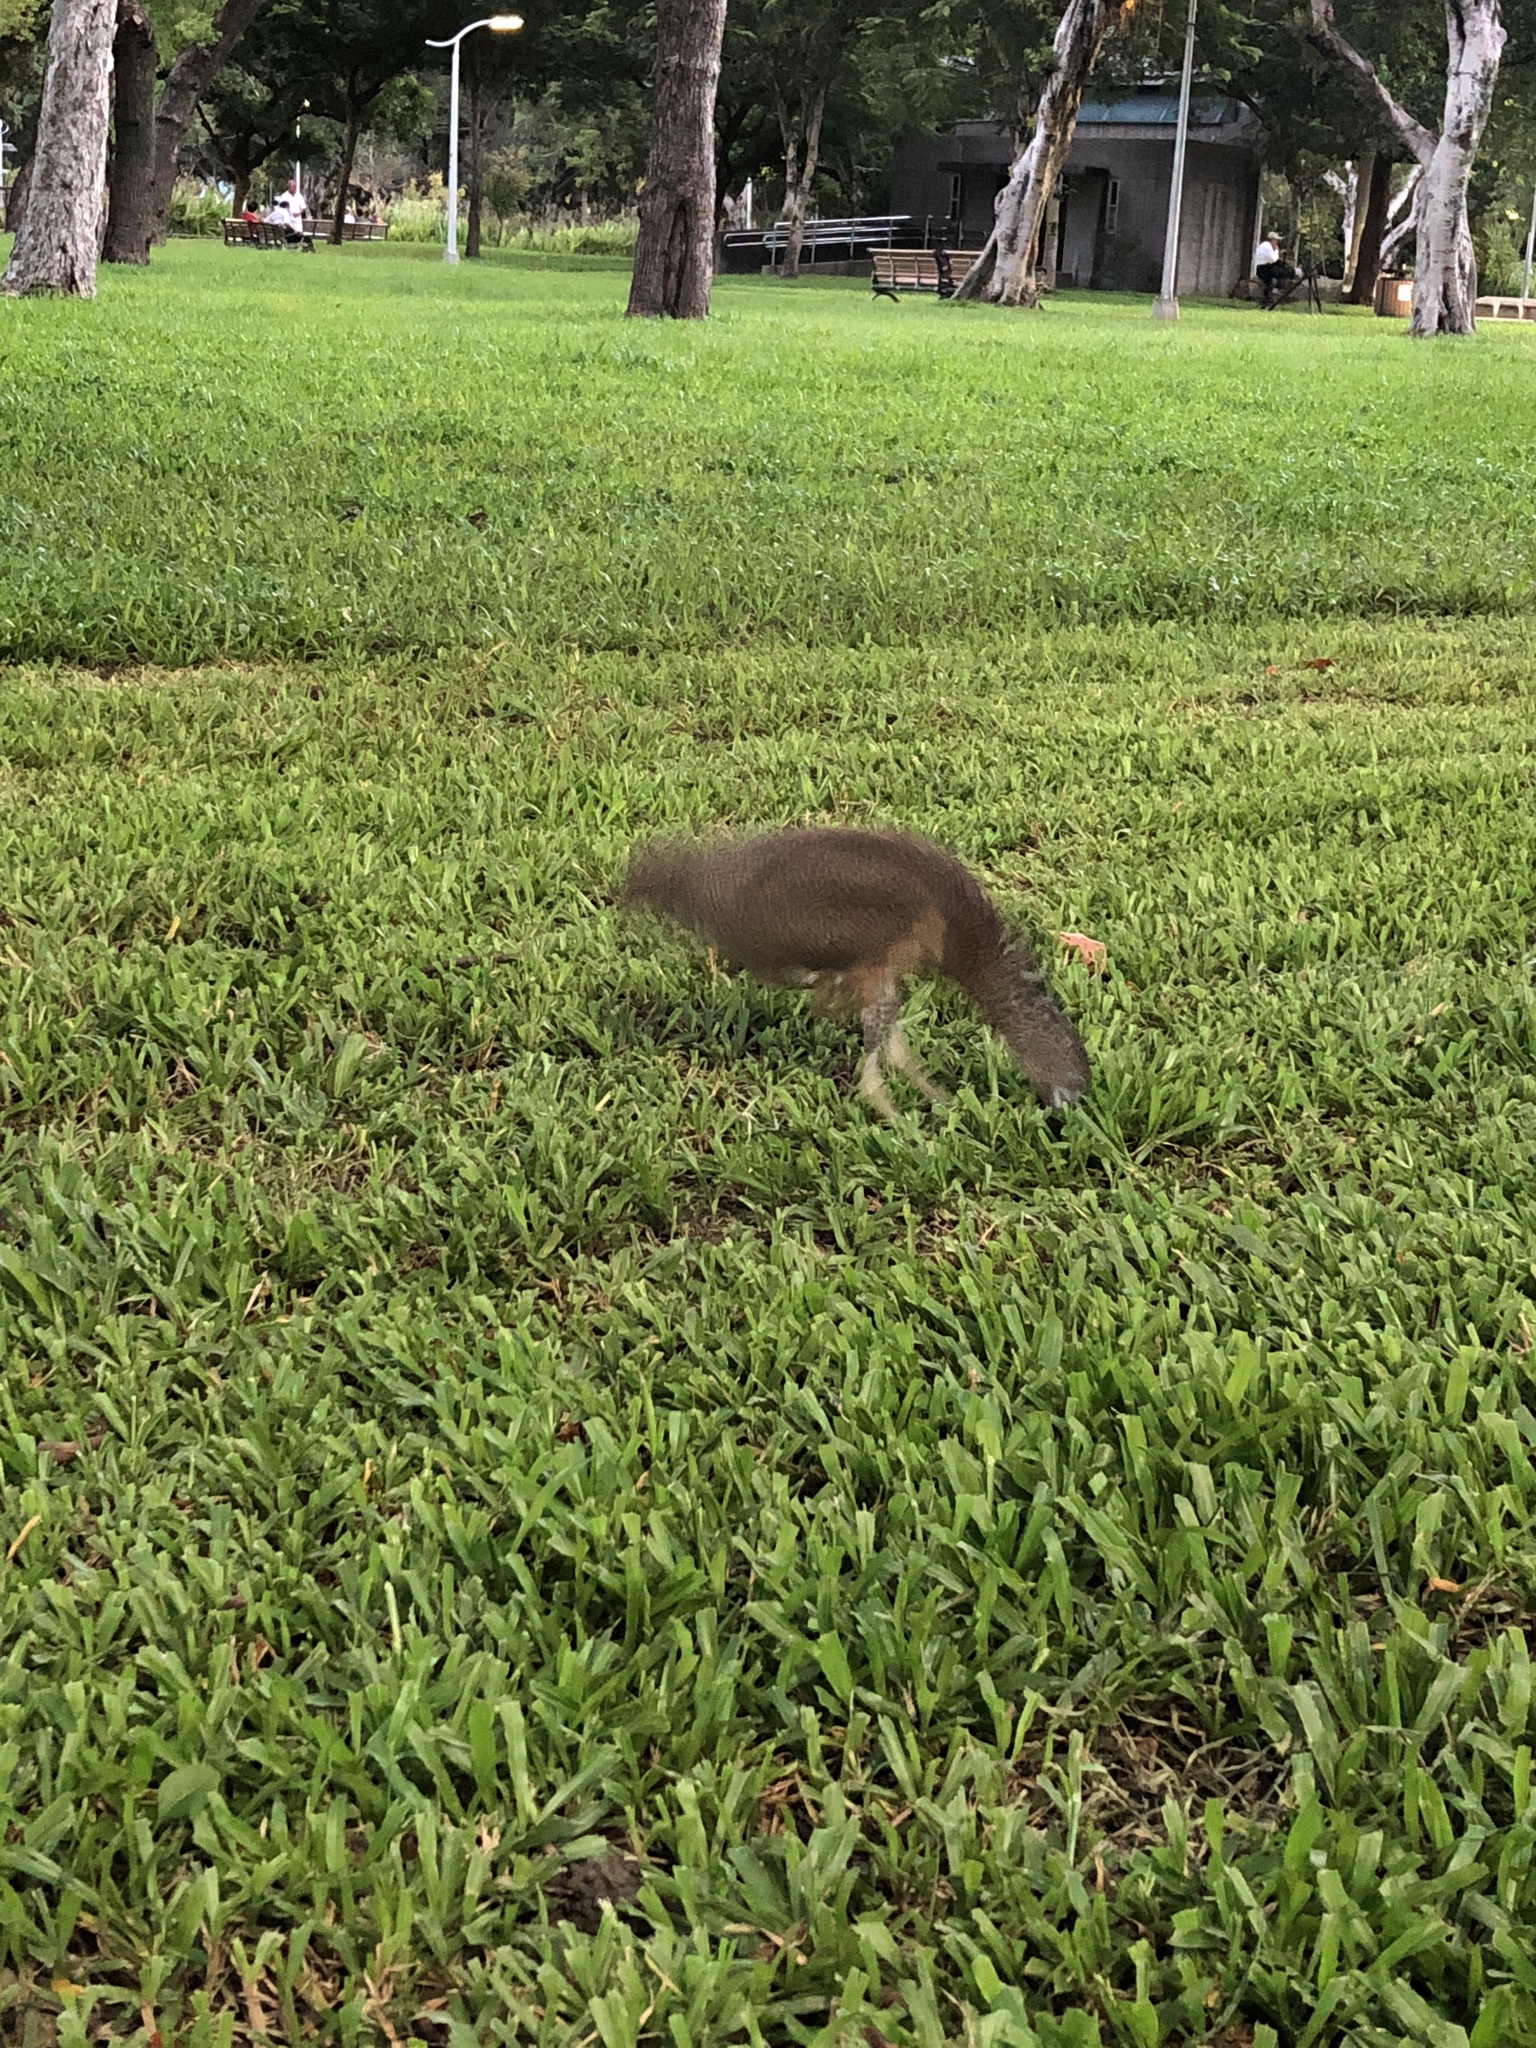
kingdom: Animalia
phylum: Chordata
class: Aves
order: Pelecaniformes
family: Ardeidae
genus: Gorsachius
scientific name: Gorsachius melanolophus
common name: Malayan night heron
